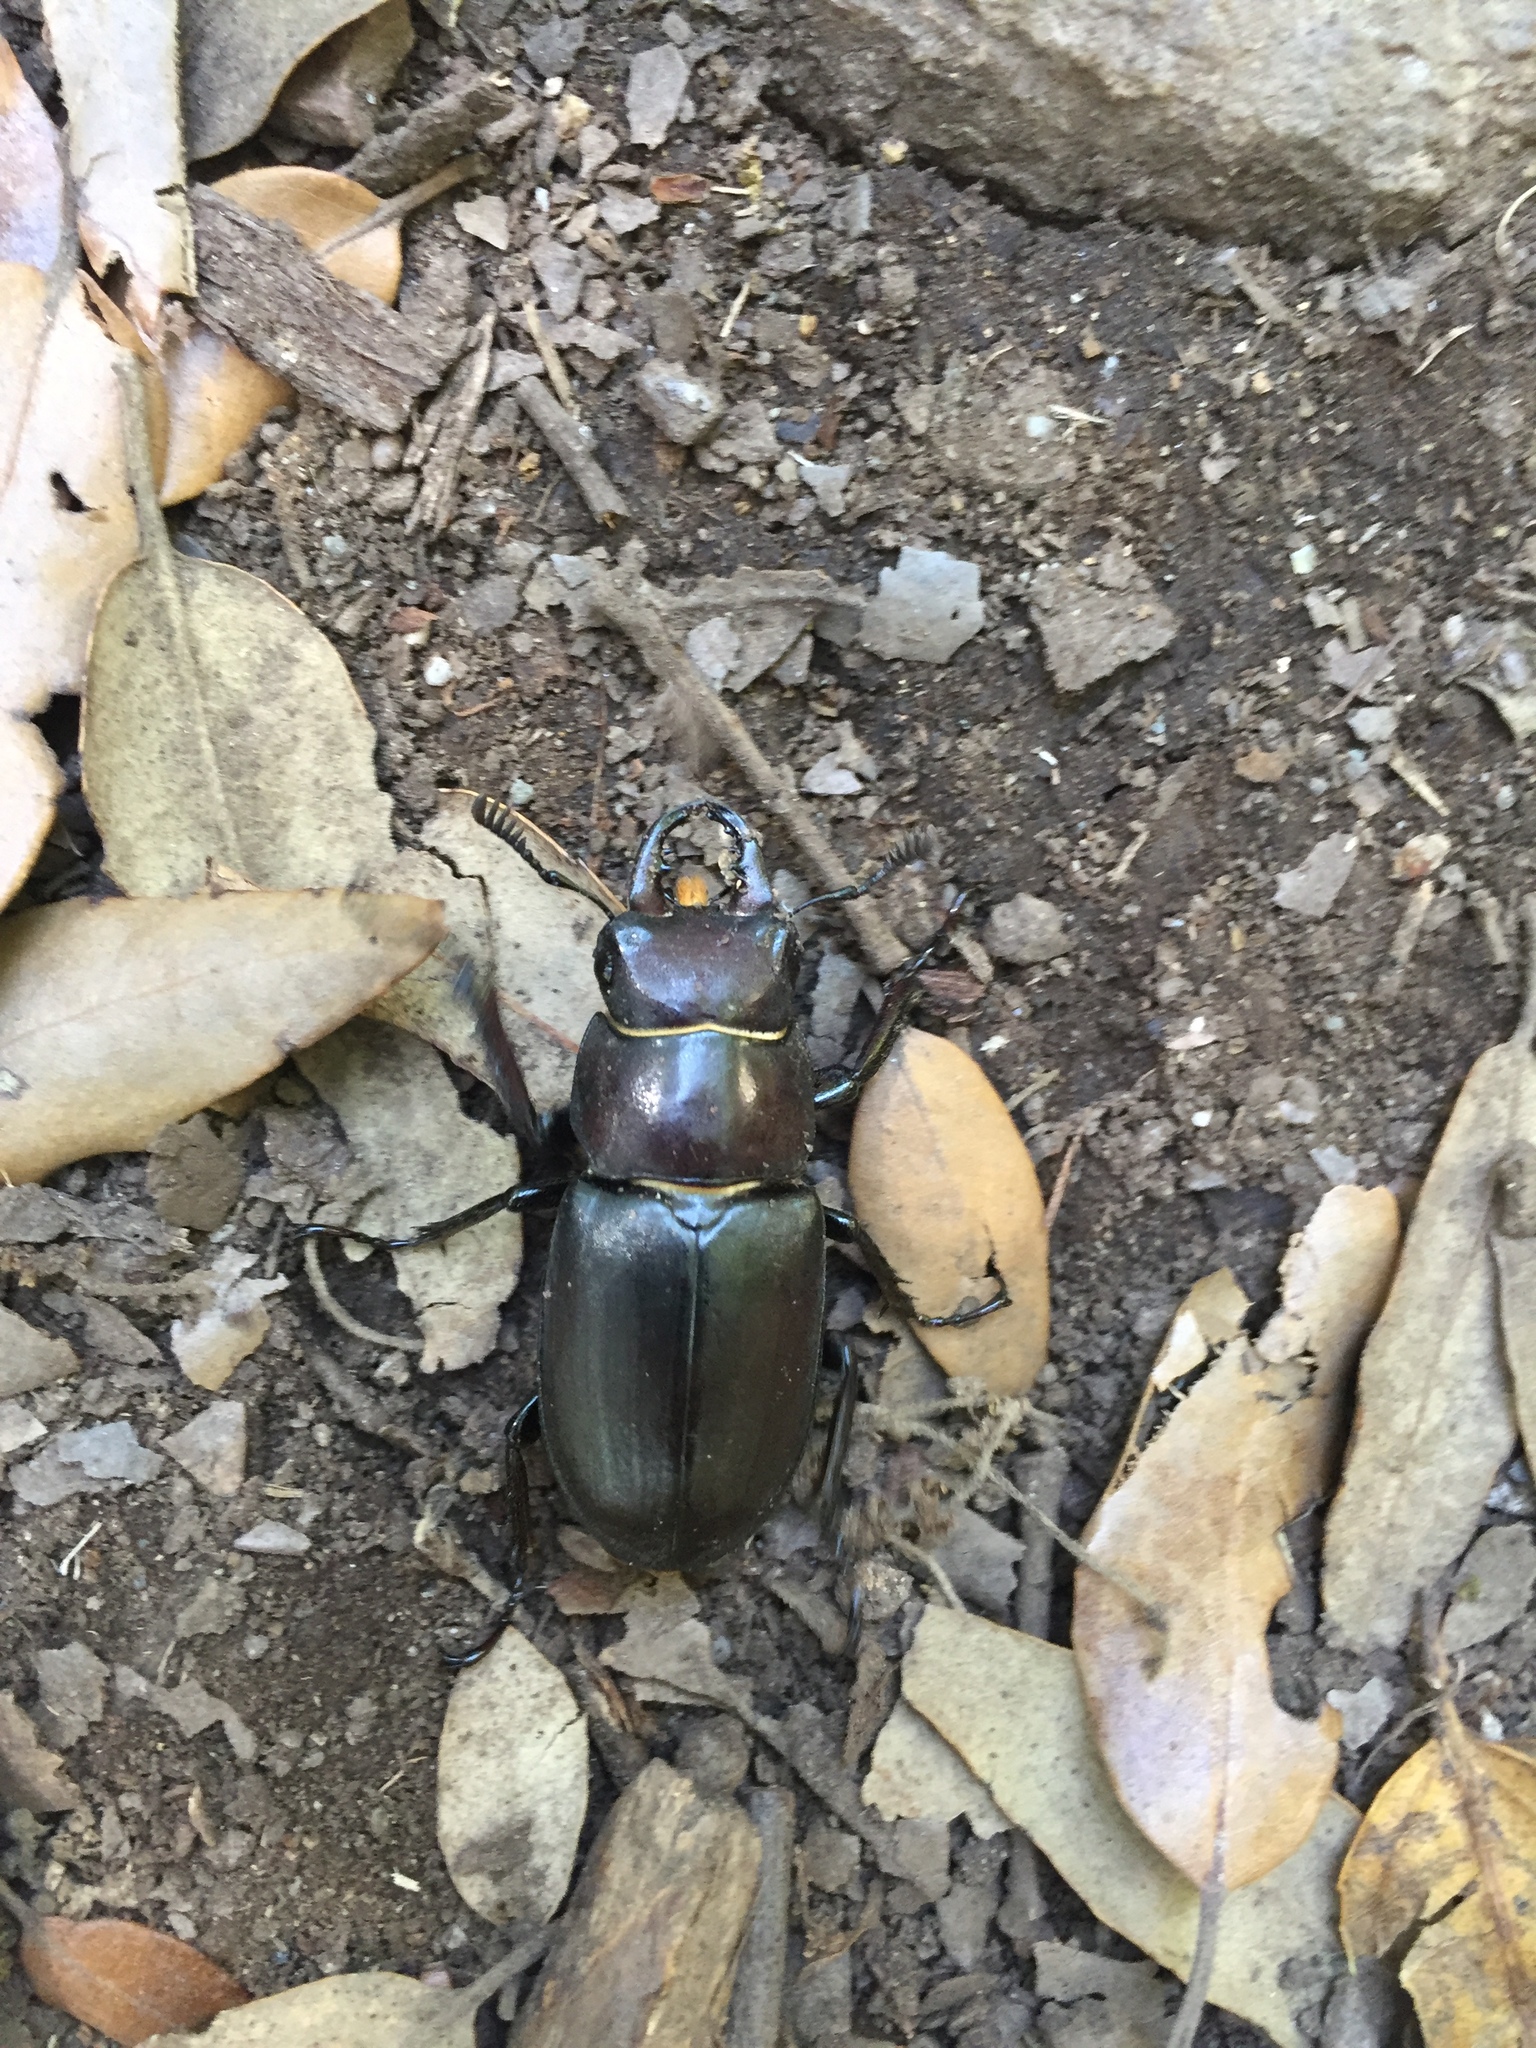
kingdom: Animalia
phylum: Arthropoda
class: Insecta
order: Coleoptera
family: Lucanidae
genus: Lucanus
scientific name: Lucanus tetraodon
